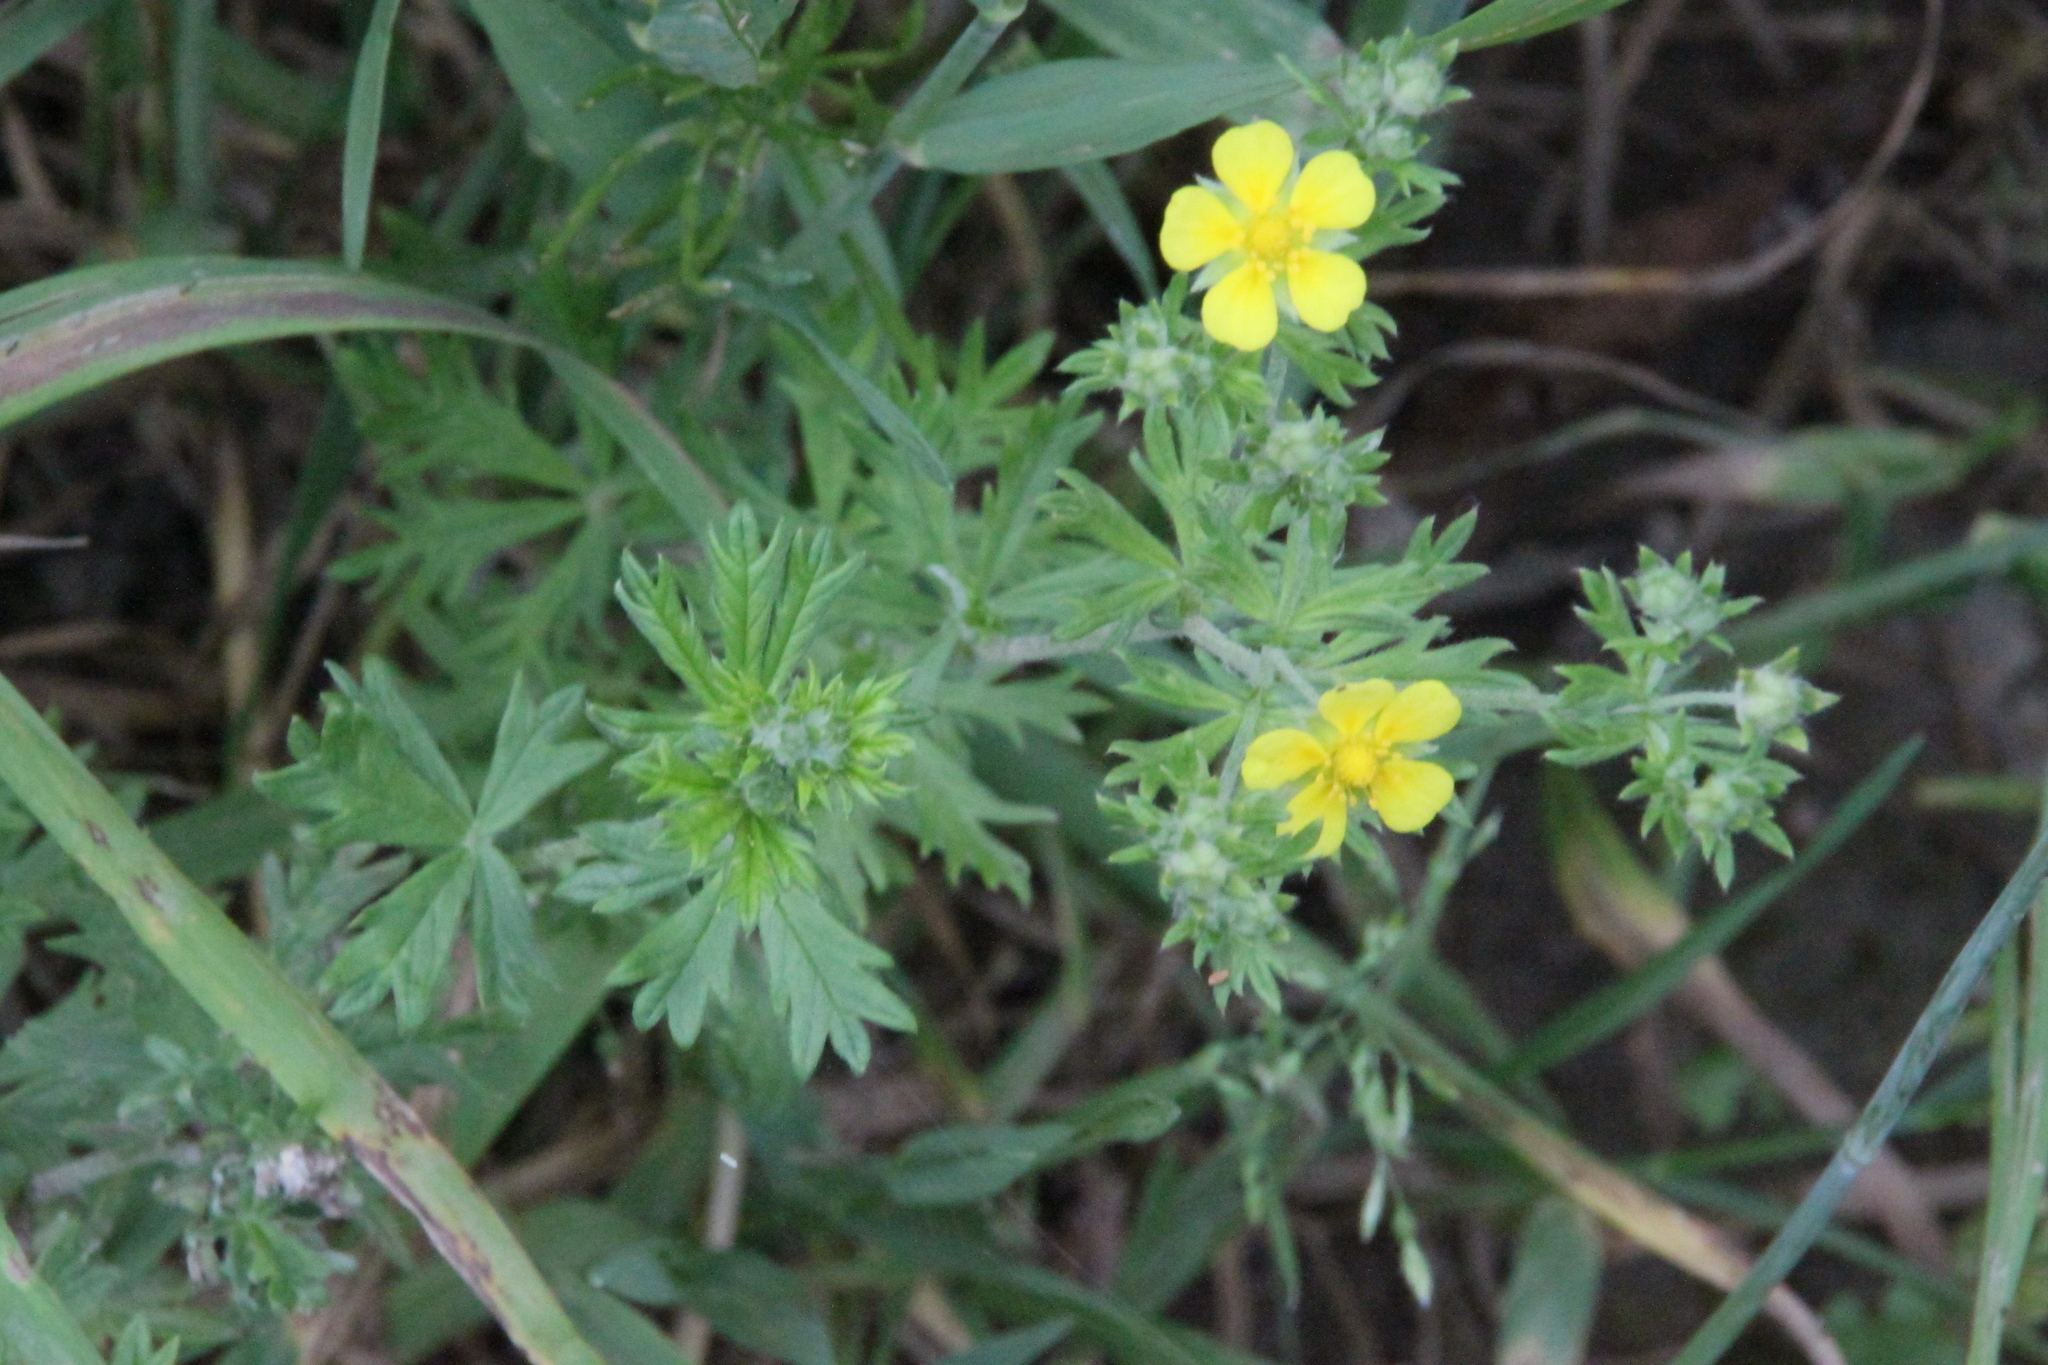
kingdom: Plantae
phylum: Tracheophyta
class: Magnoliopsida
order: Rosales
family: Rosaceae
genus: Potentilla
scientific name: Potentilla argentea
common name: Hoary cinquefoil
